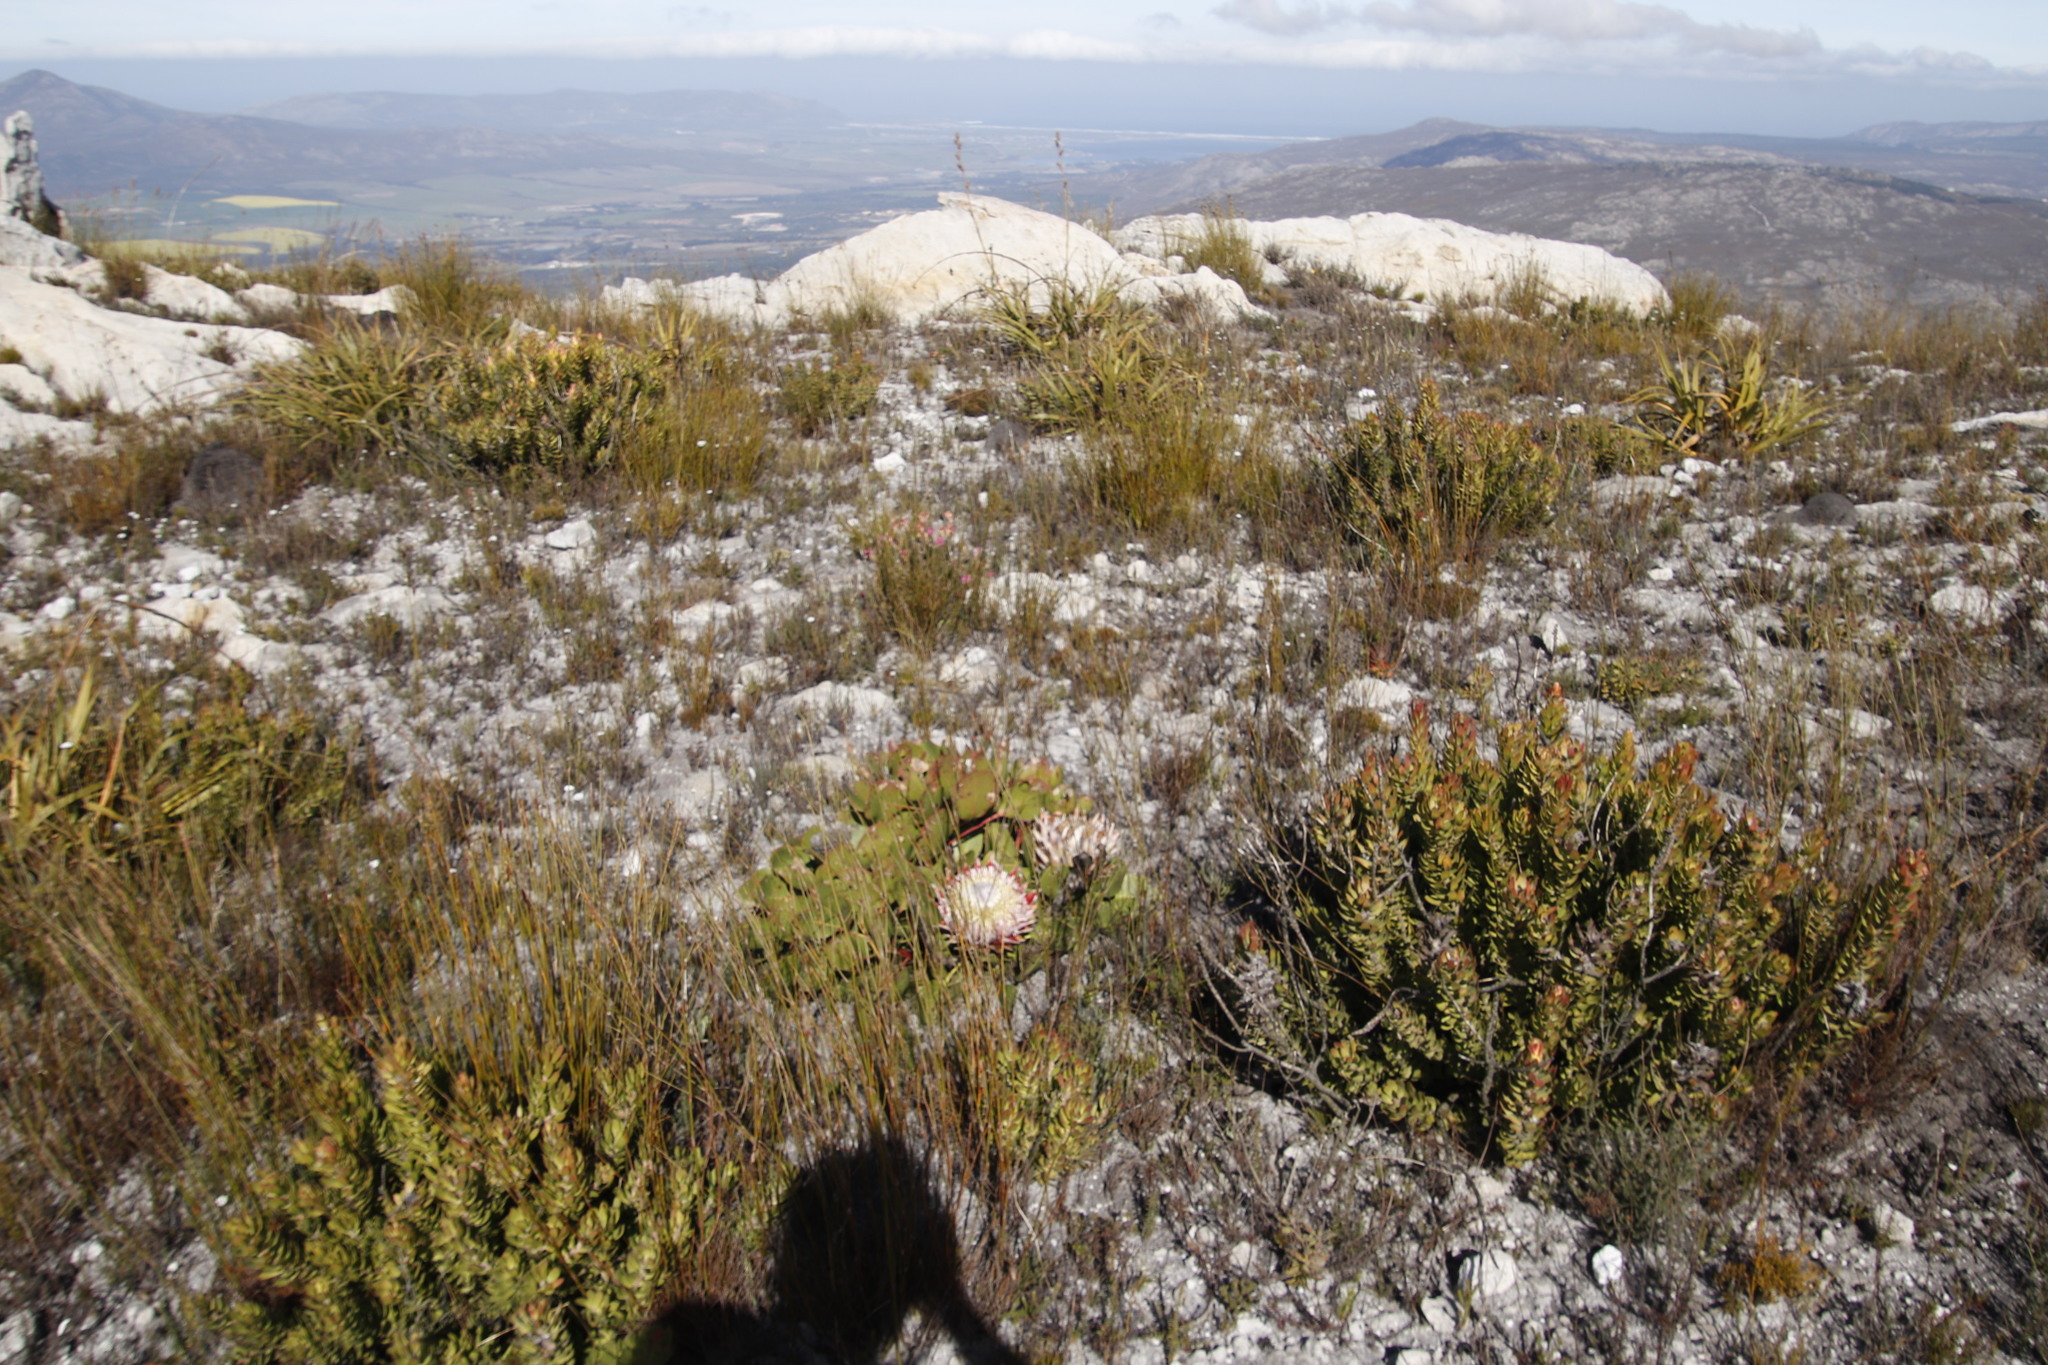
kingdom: Plantae
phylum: Tracheophyta
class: Magnoliopsida
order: Proteales
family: Proteaceae
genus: Protea
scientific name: Protea cynaroides
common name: King protea
